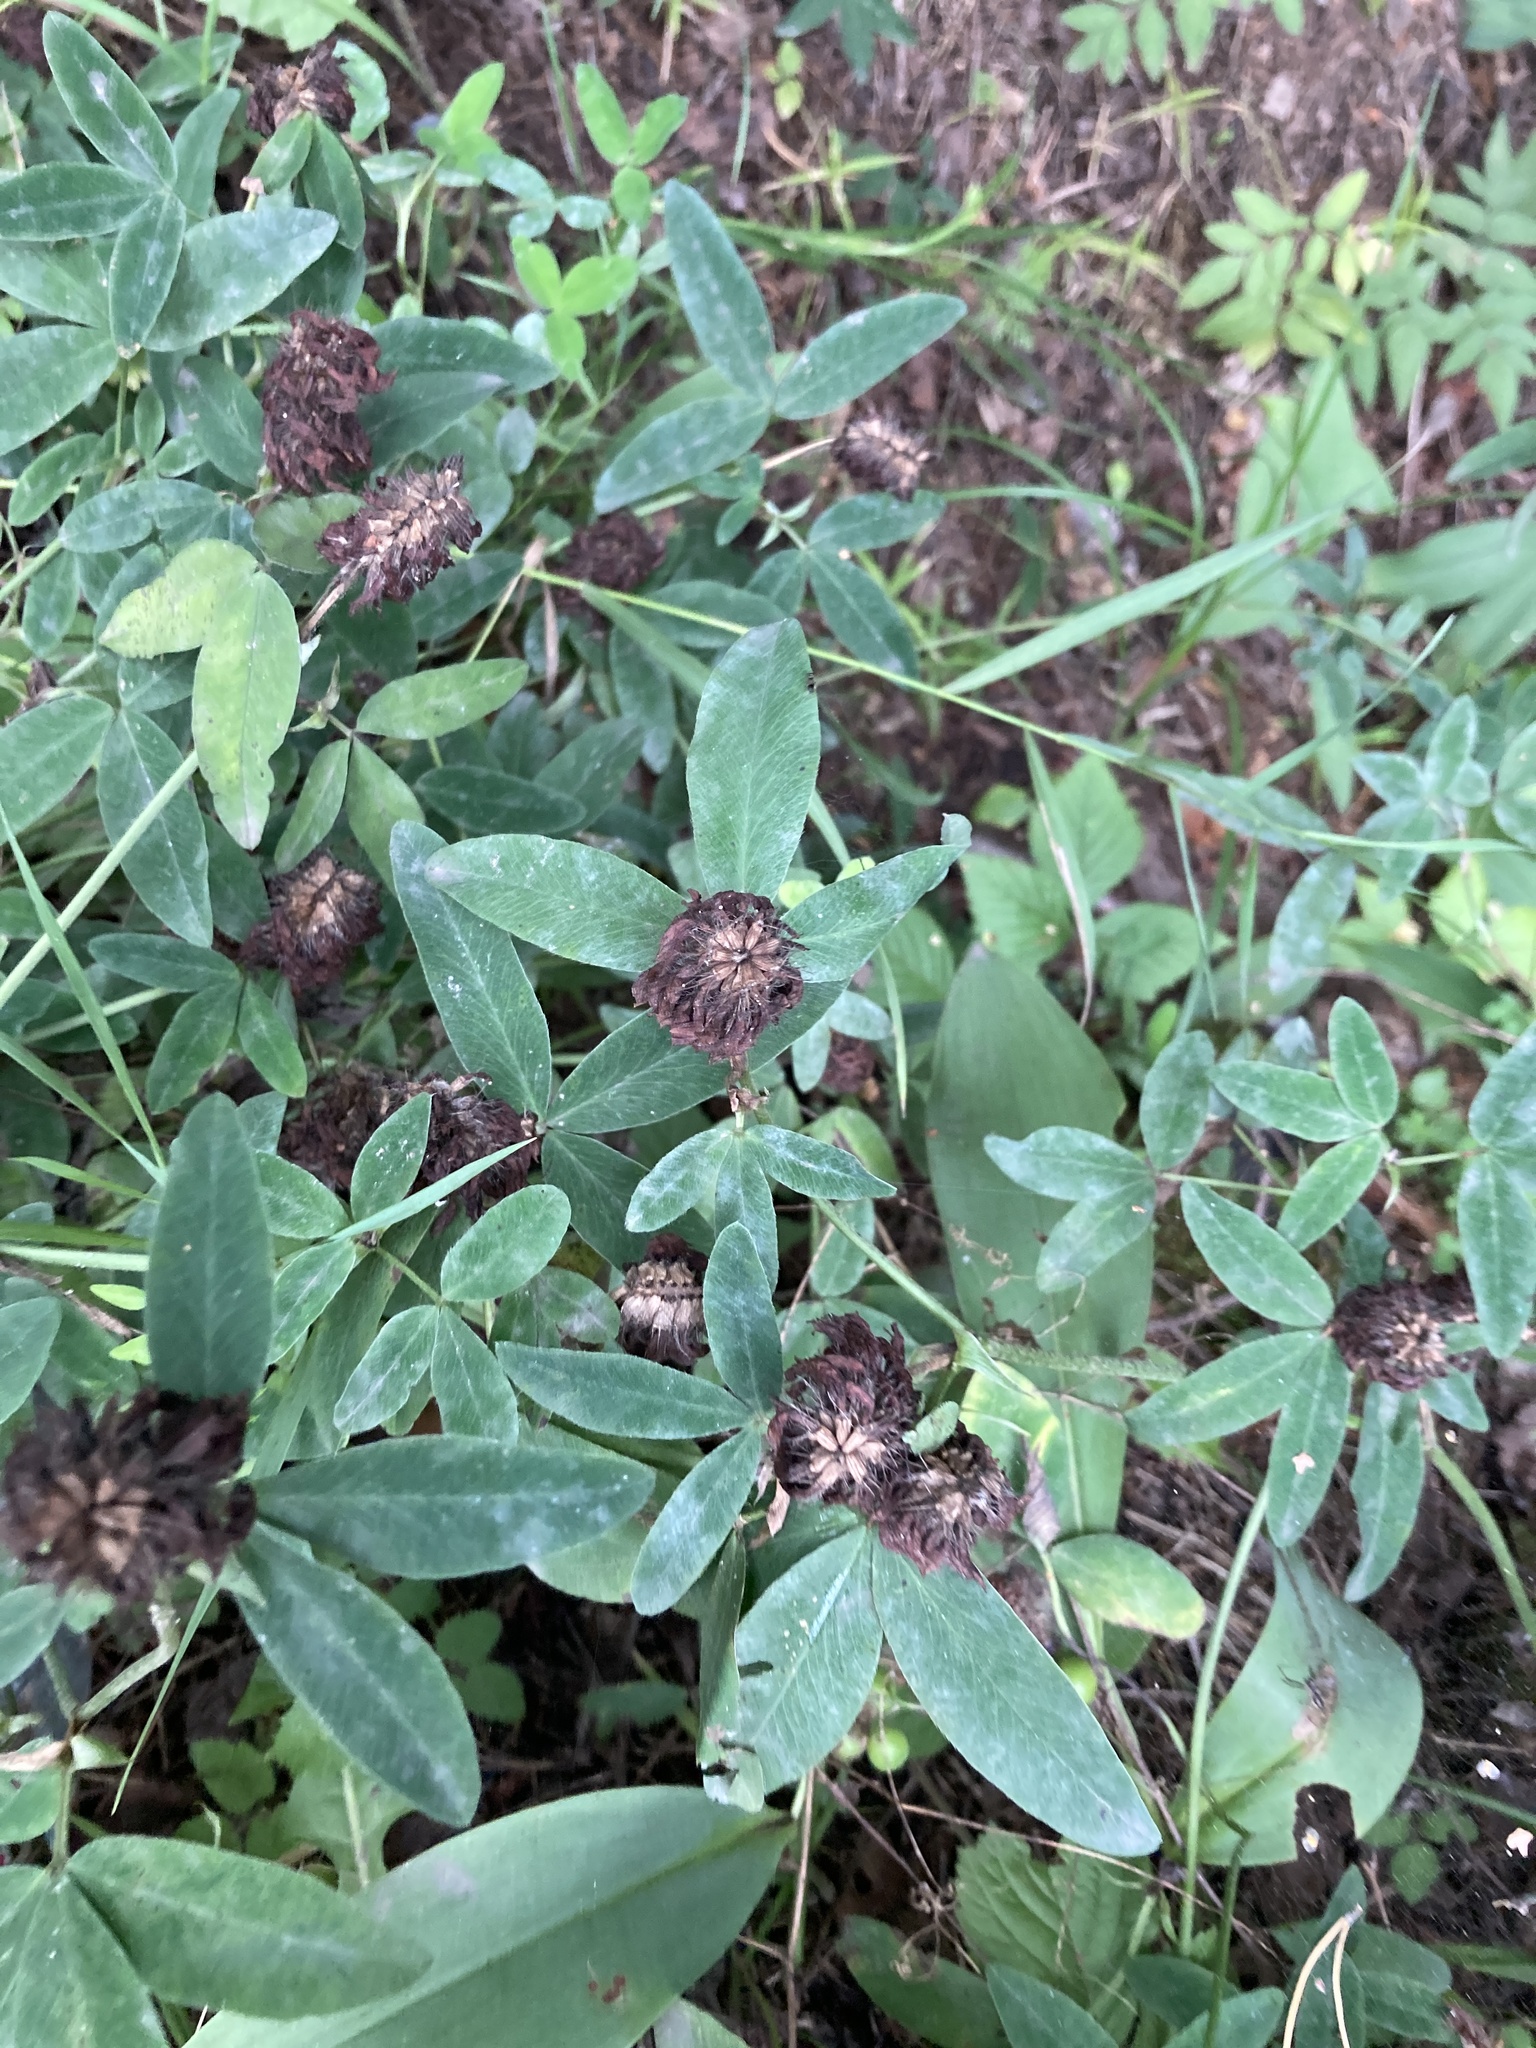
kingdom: Plantae
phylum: Tracheophyta
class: Magnoliopsida
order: Fabales
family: Fabaceae
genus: Trifolium
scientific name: Trifolium medium
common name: Zigzag clover
